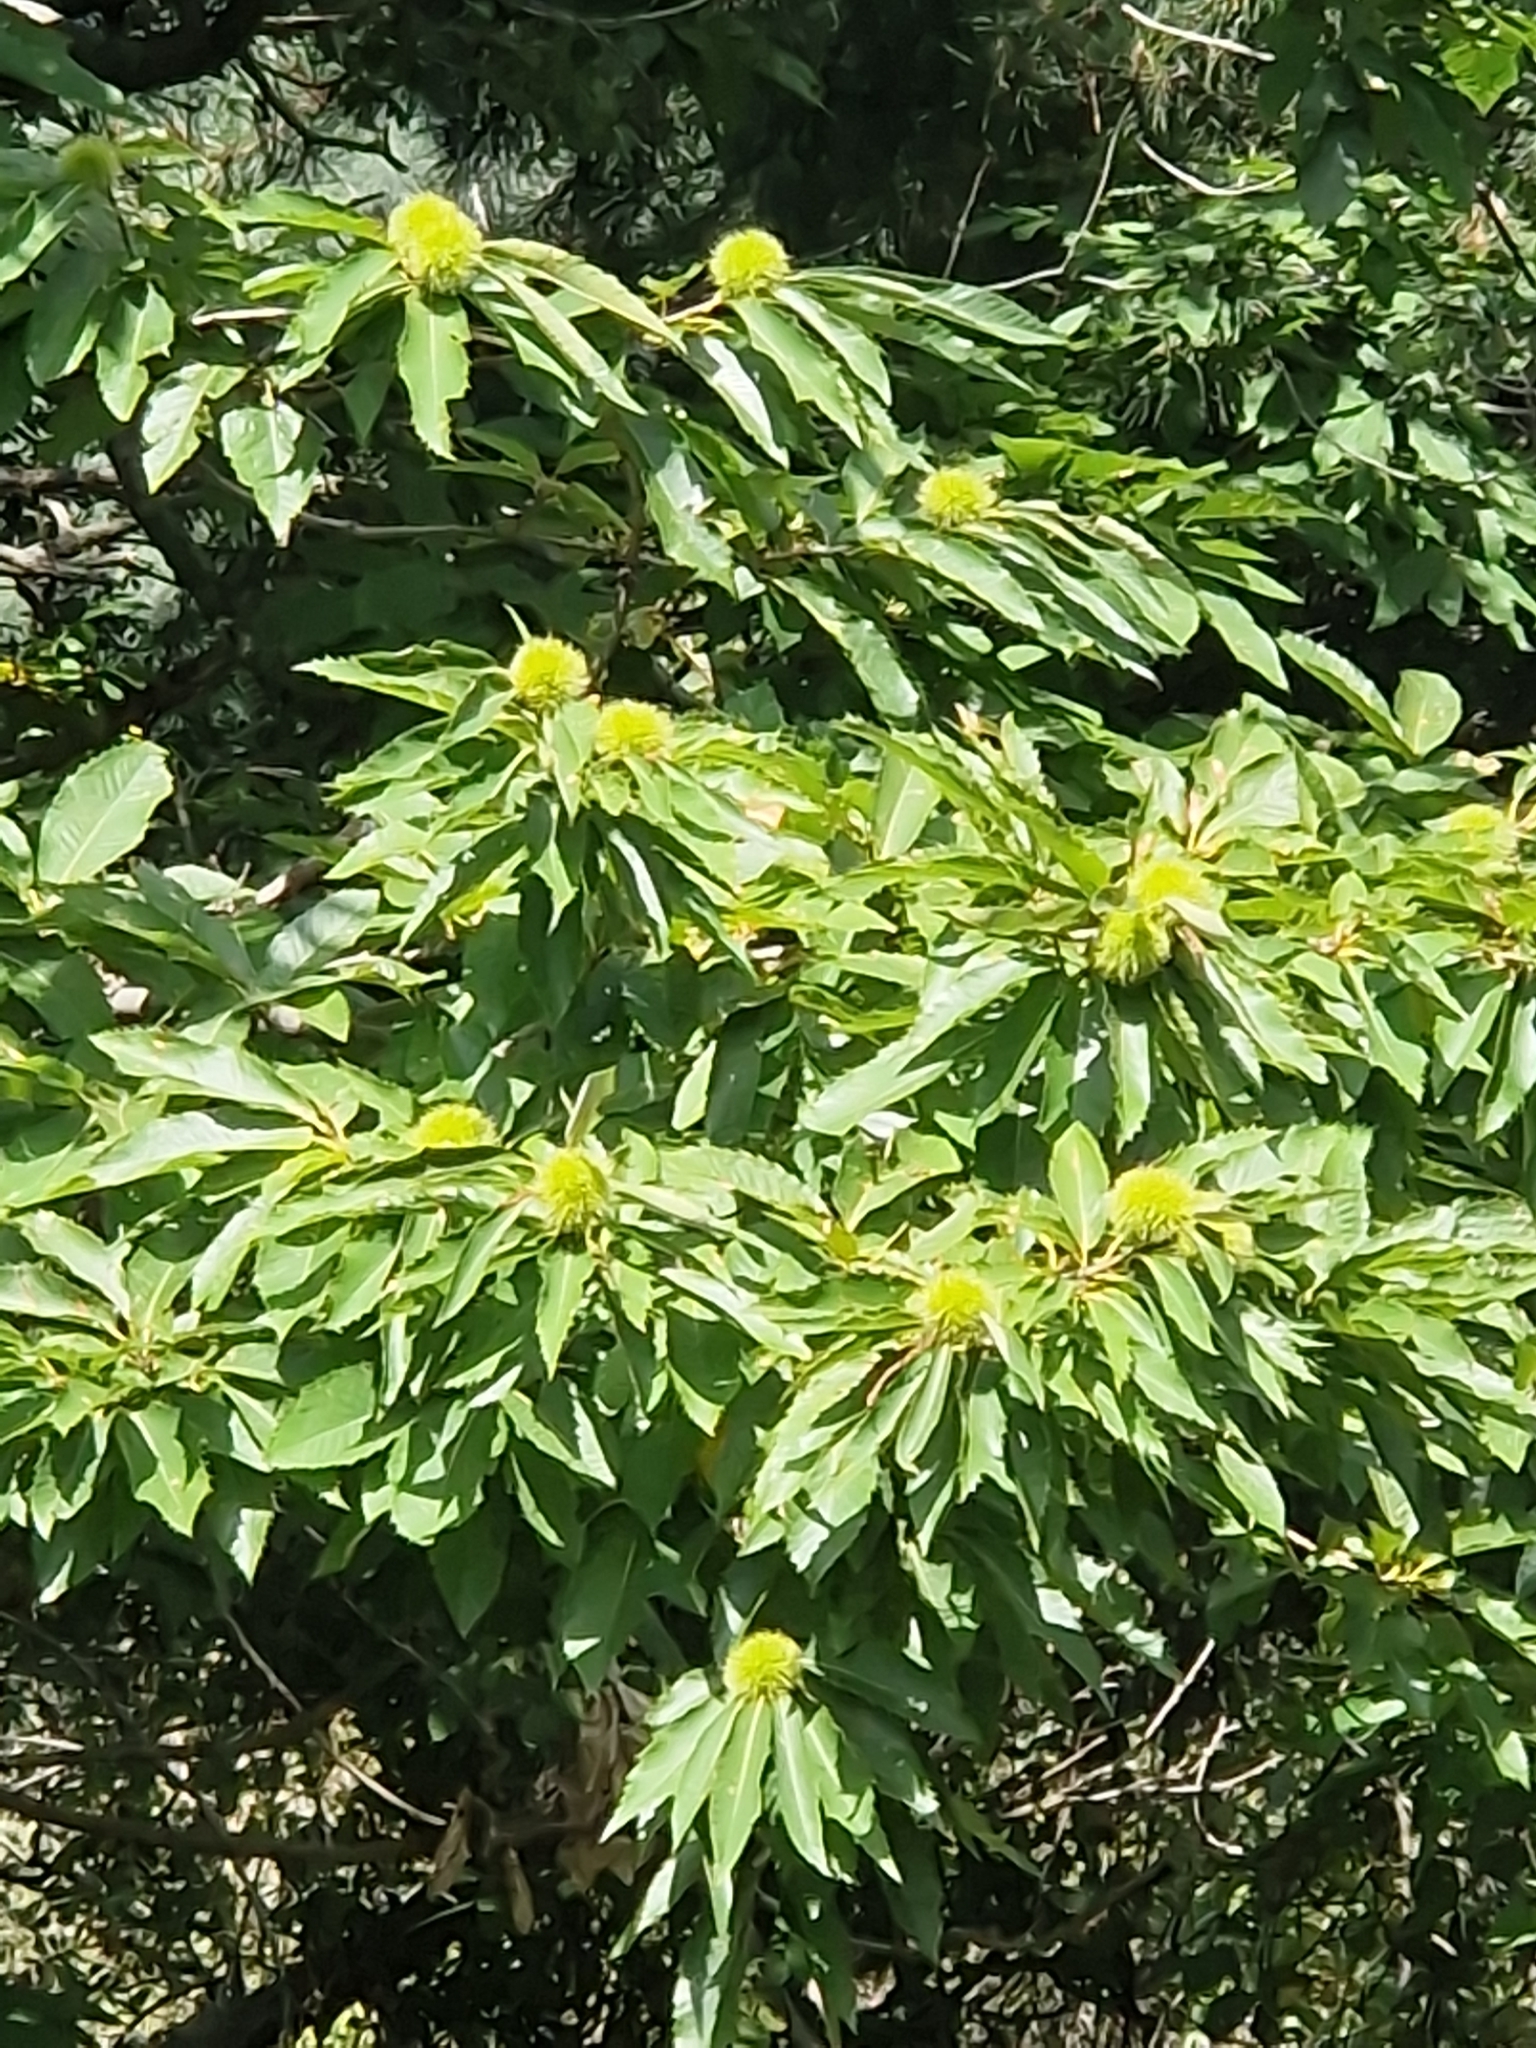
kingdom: Plantae
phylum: Tracheophyta
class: Magnoliopsida
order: Fagales
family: Fagaceae
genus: Castanea
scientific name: Castanea sativa
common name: Sweet chestnut
